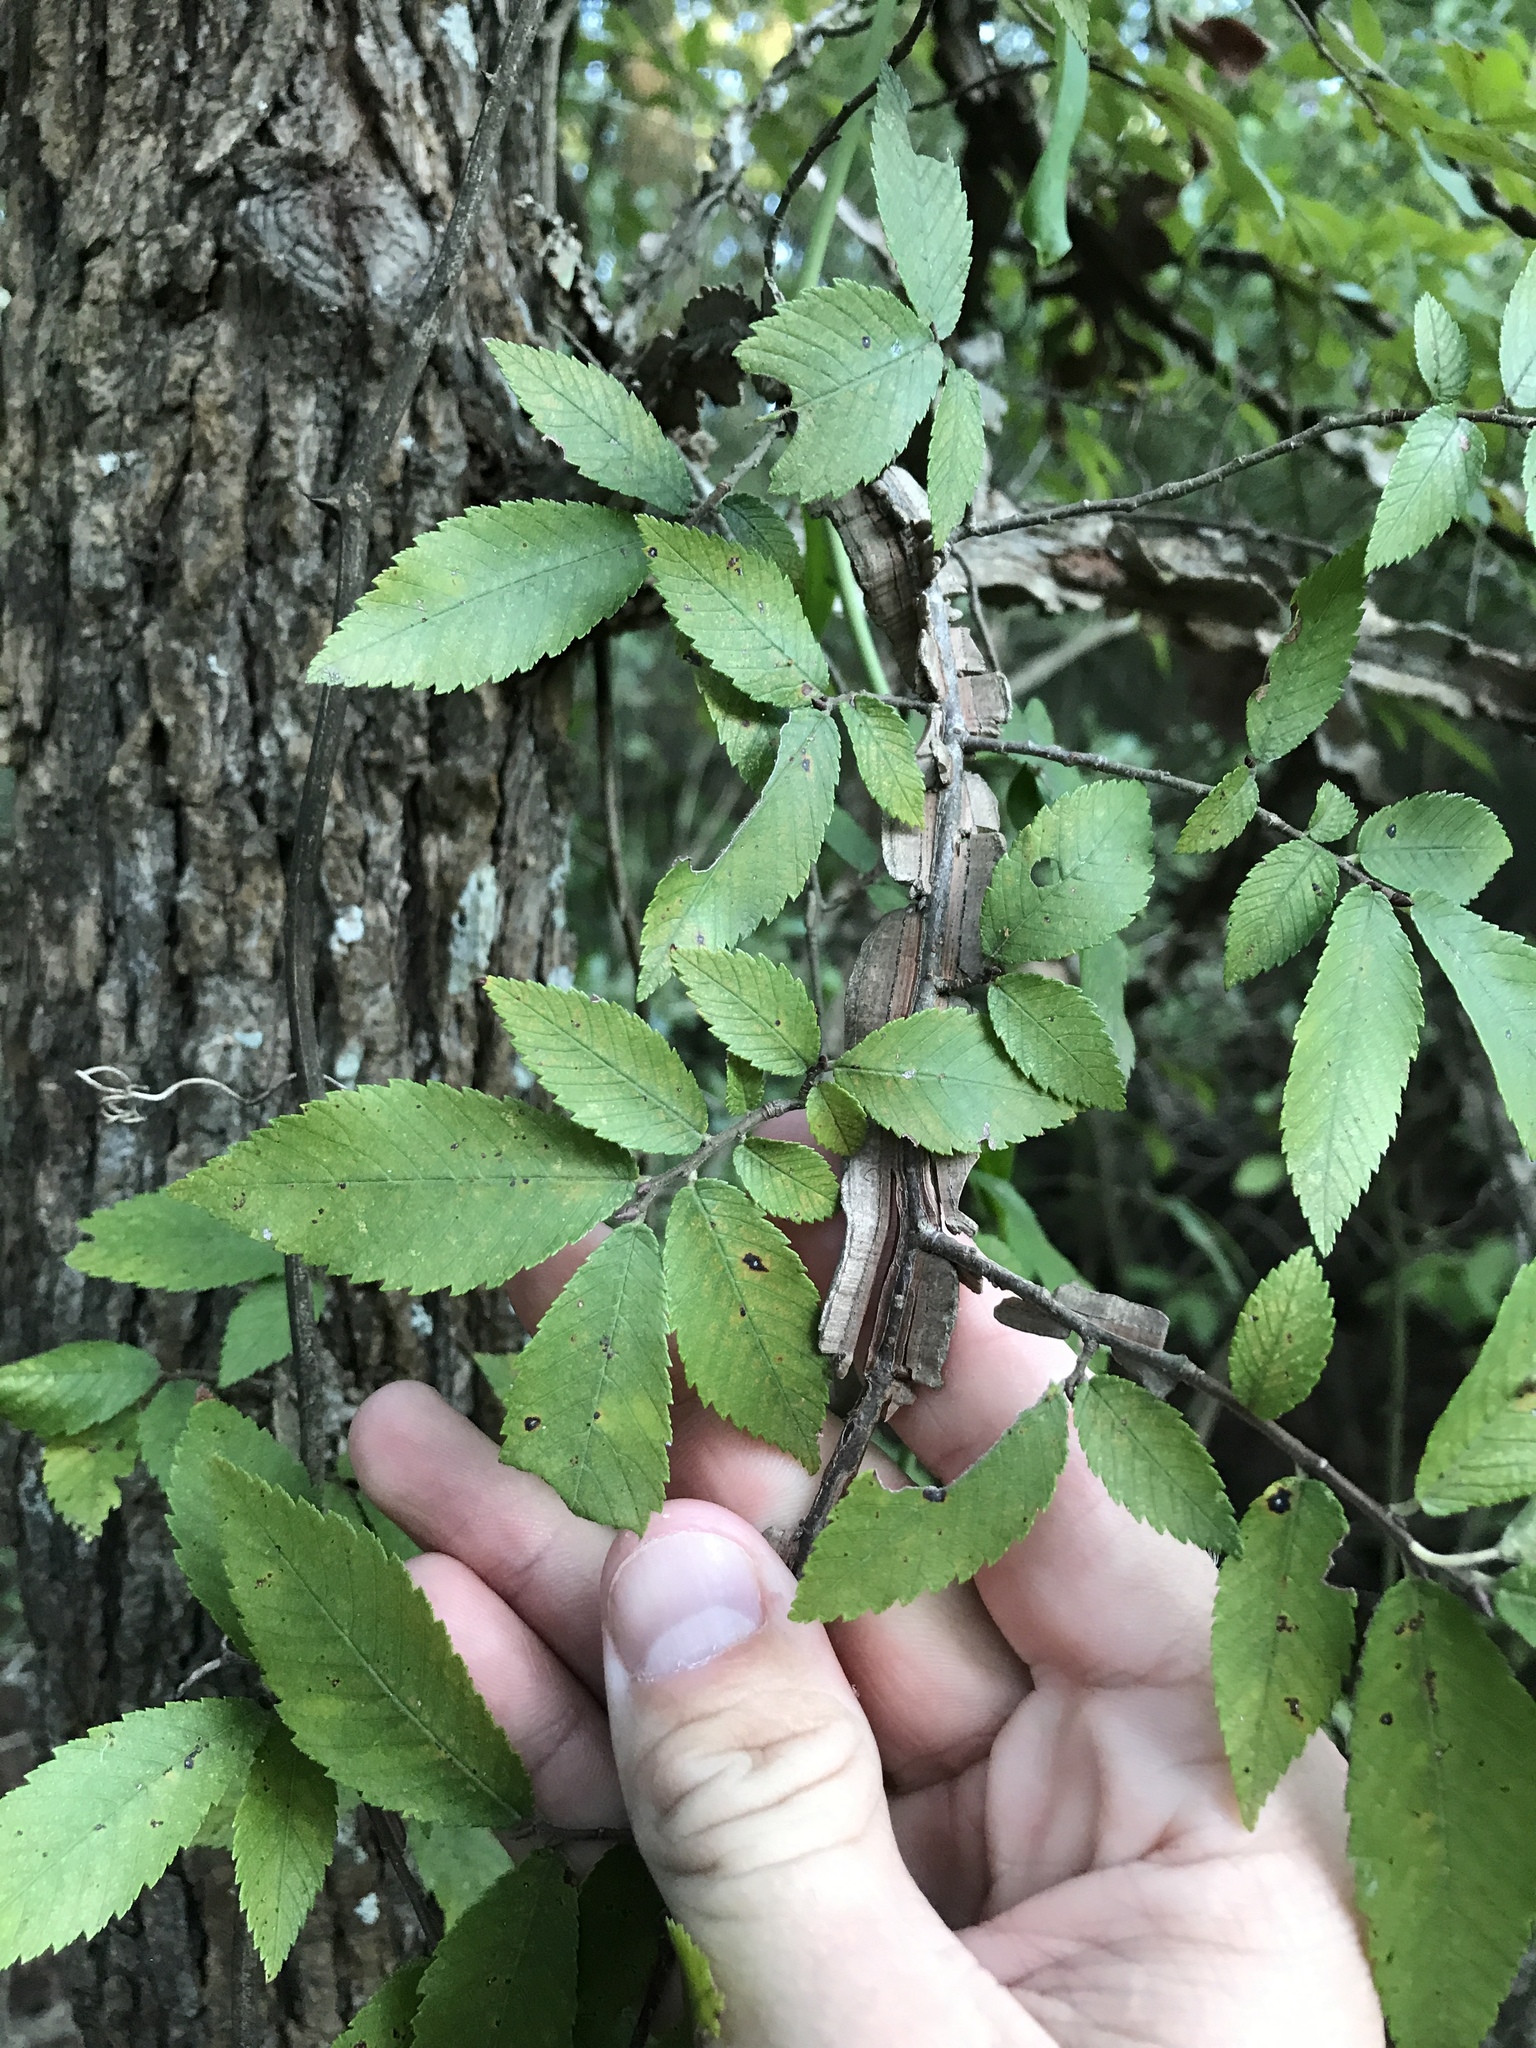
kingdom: Plantae
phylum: Tracheophyta
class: Magnoliopsida
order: Rosales
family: Ulmaceae
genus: Ulmus
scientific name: Ulmus alata
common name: Winged elm
